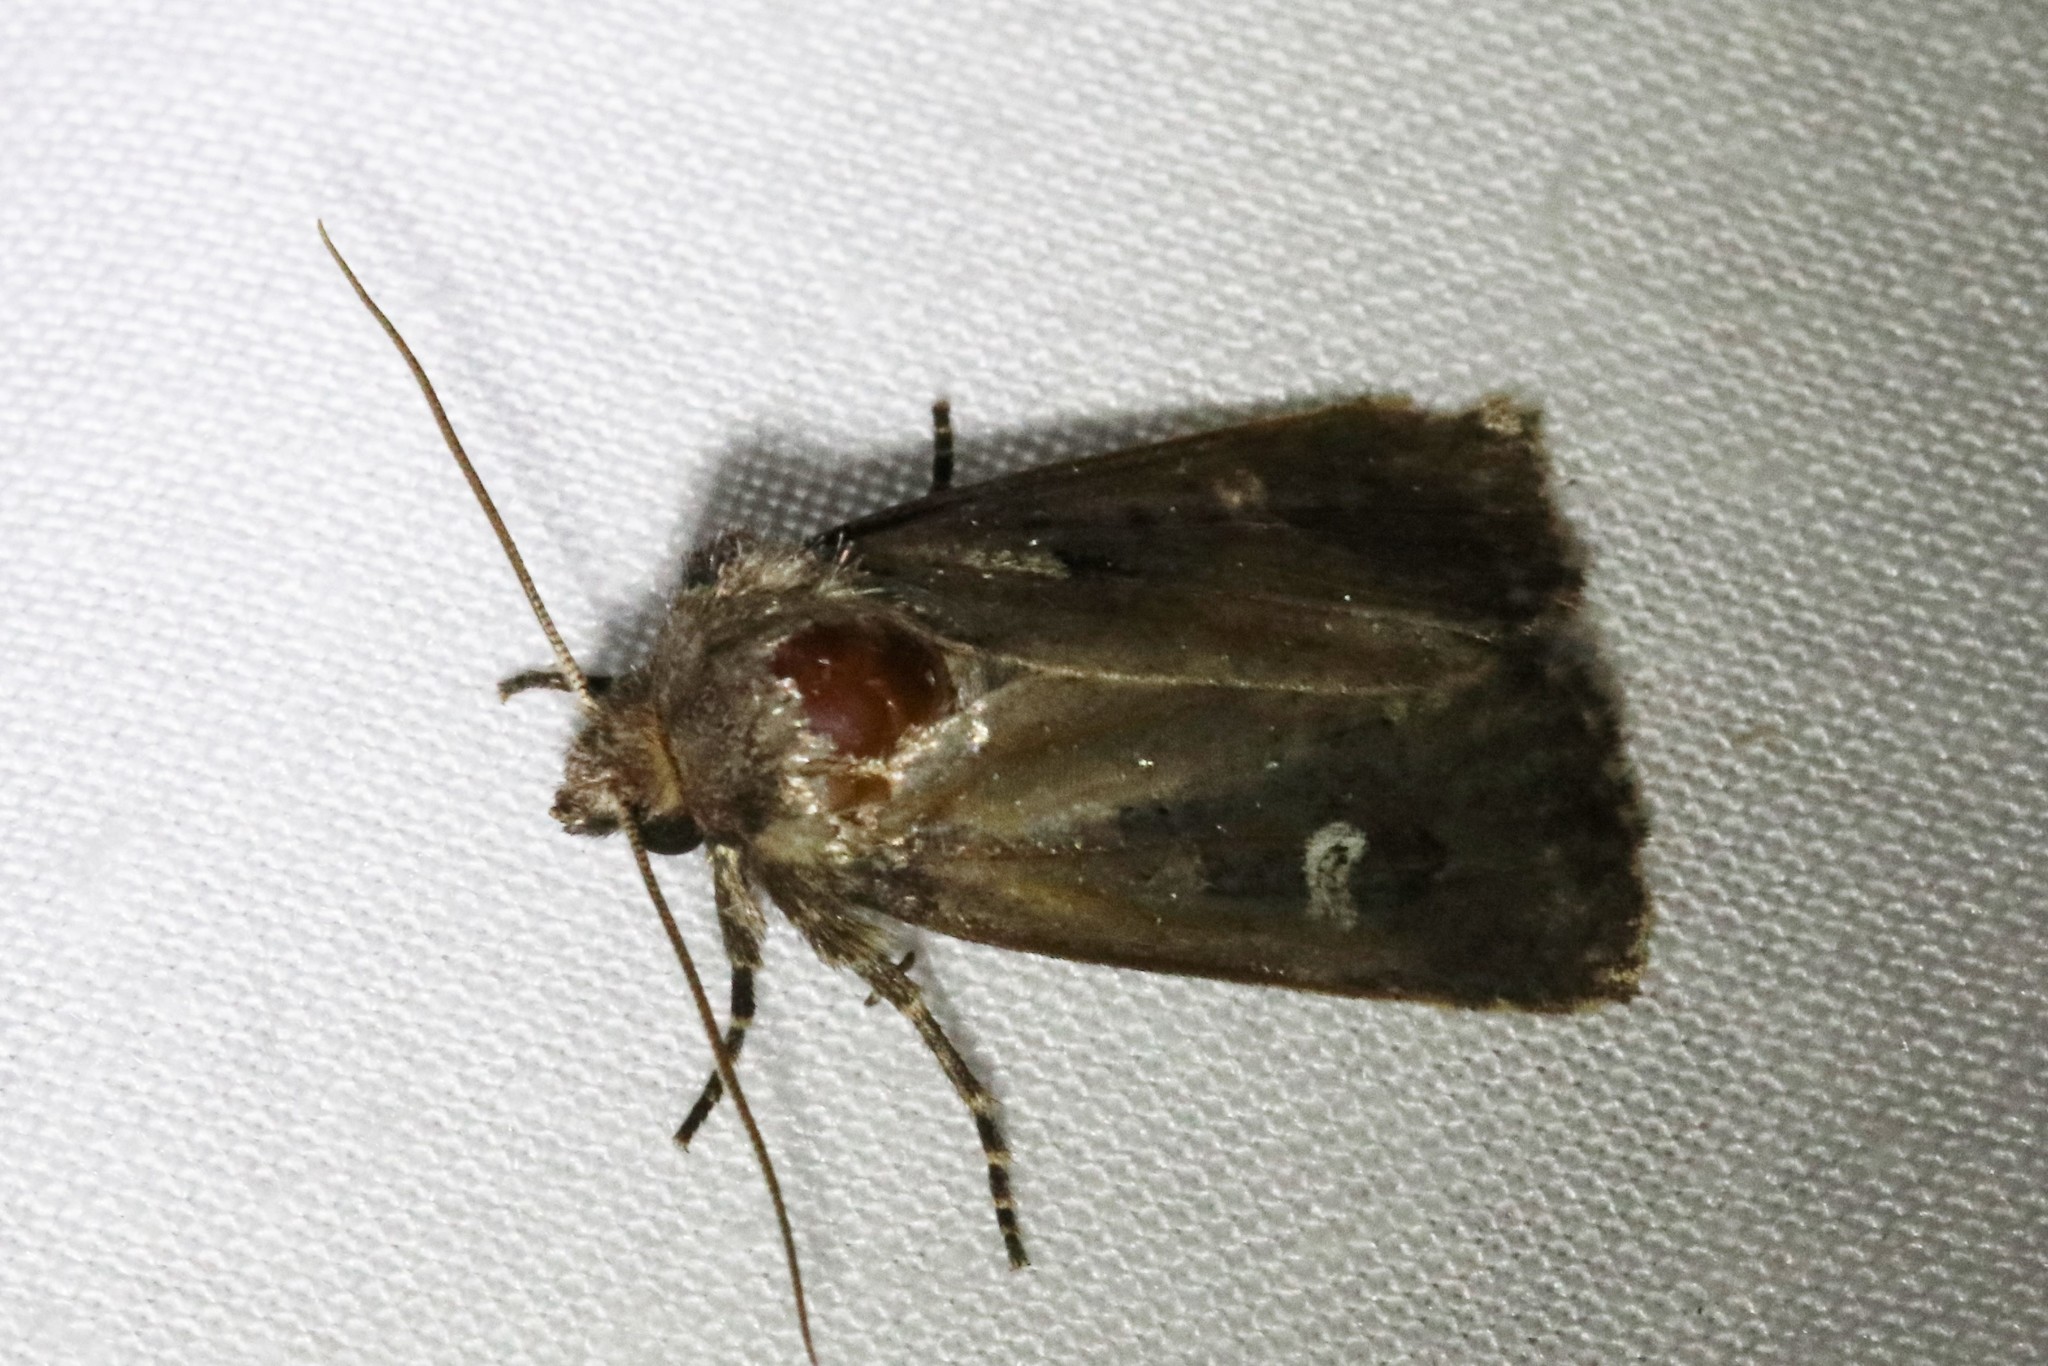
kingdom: Animalia
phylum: Arthropoda
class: Insecta
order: Lepidoptera
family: Noctuidae
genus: Lacinipolia
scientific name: Lacinipolia renigera
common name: Kidney-spotted minor
